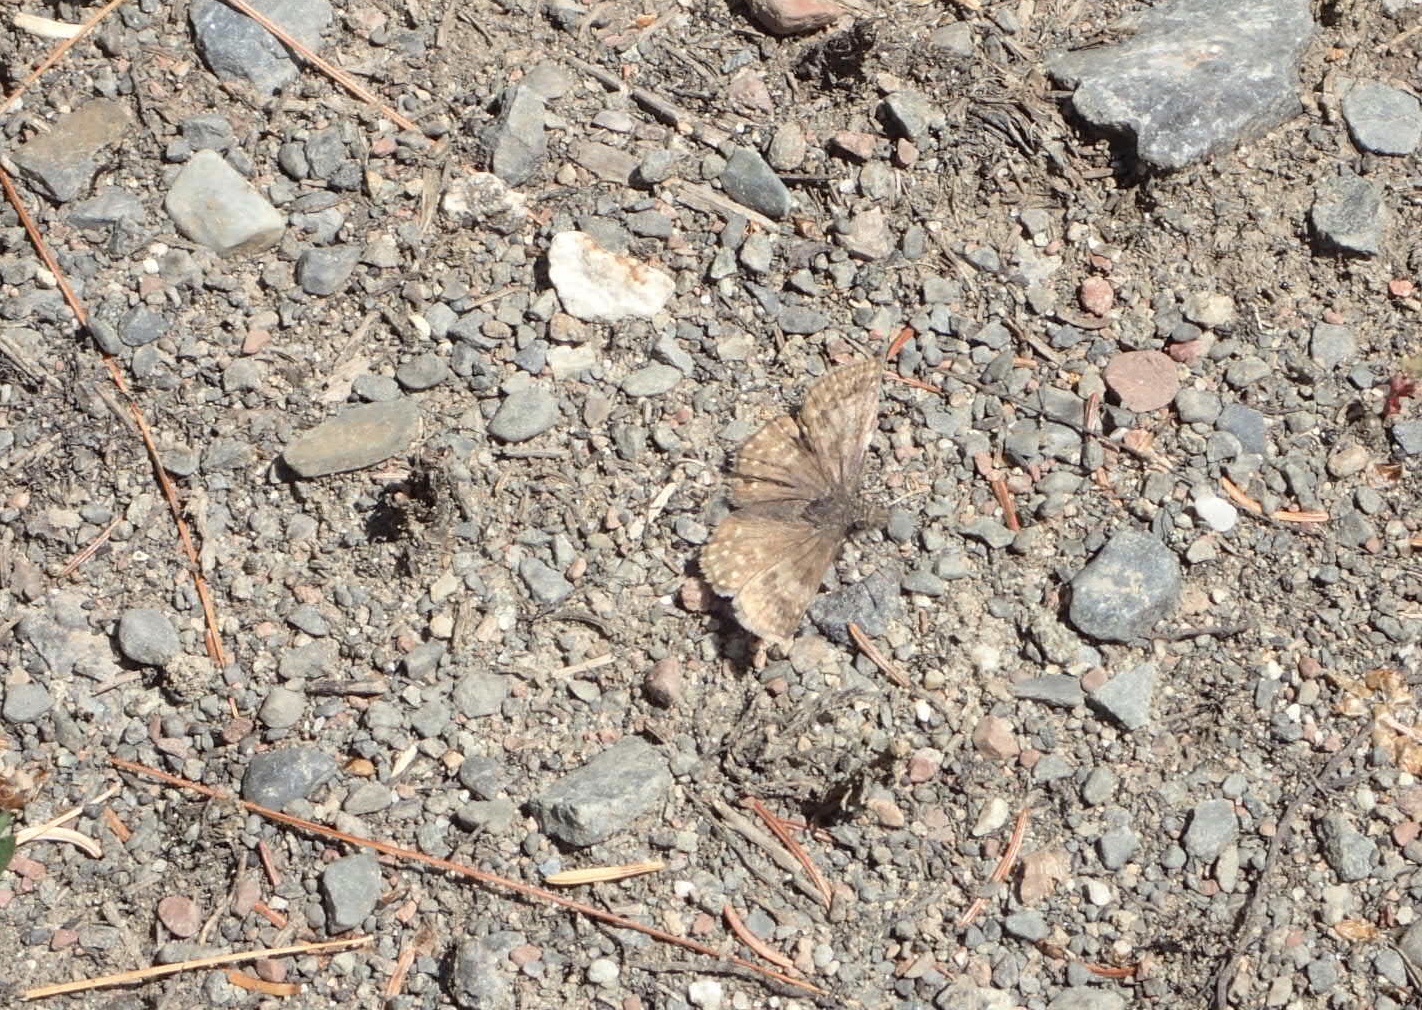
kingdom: Animalia
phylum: Arthropoda
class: Insecta
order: Lepidoptera
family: Hesperiidae
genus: Erynnis
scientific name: Erynnis icelus
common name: Dreamy duskywing
